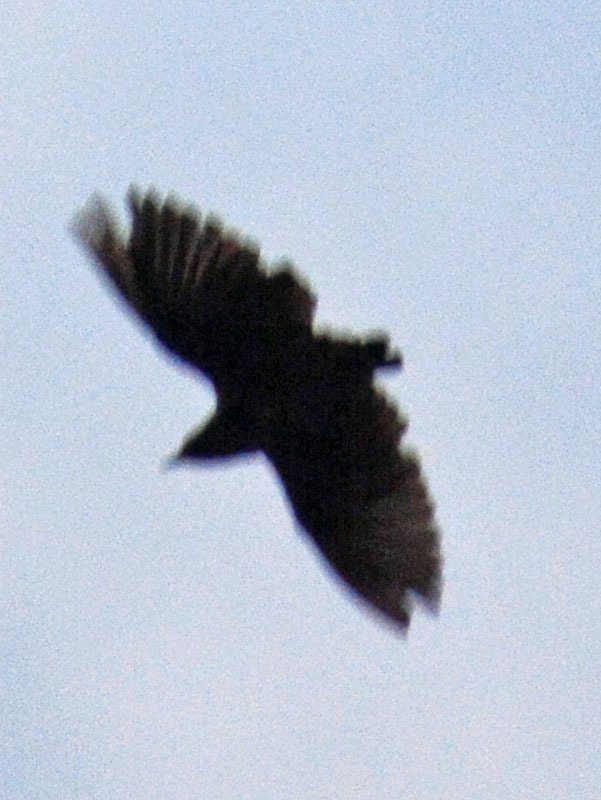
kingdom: Animalia
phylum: Chordata
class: Aves
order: Accipitriformes
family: Cathartidae
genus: Coragyps
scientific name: Coragyps atratus
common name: Black vulture
